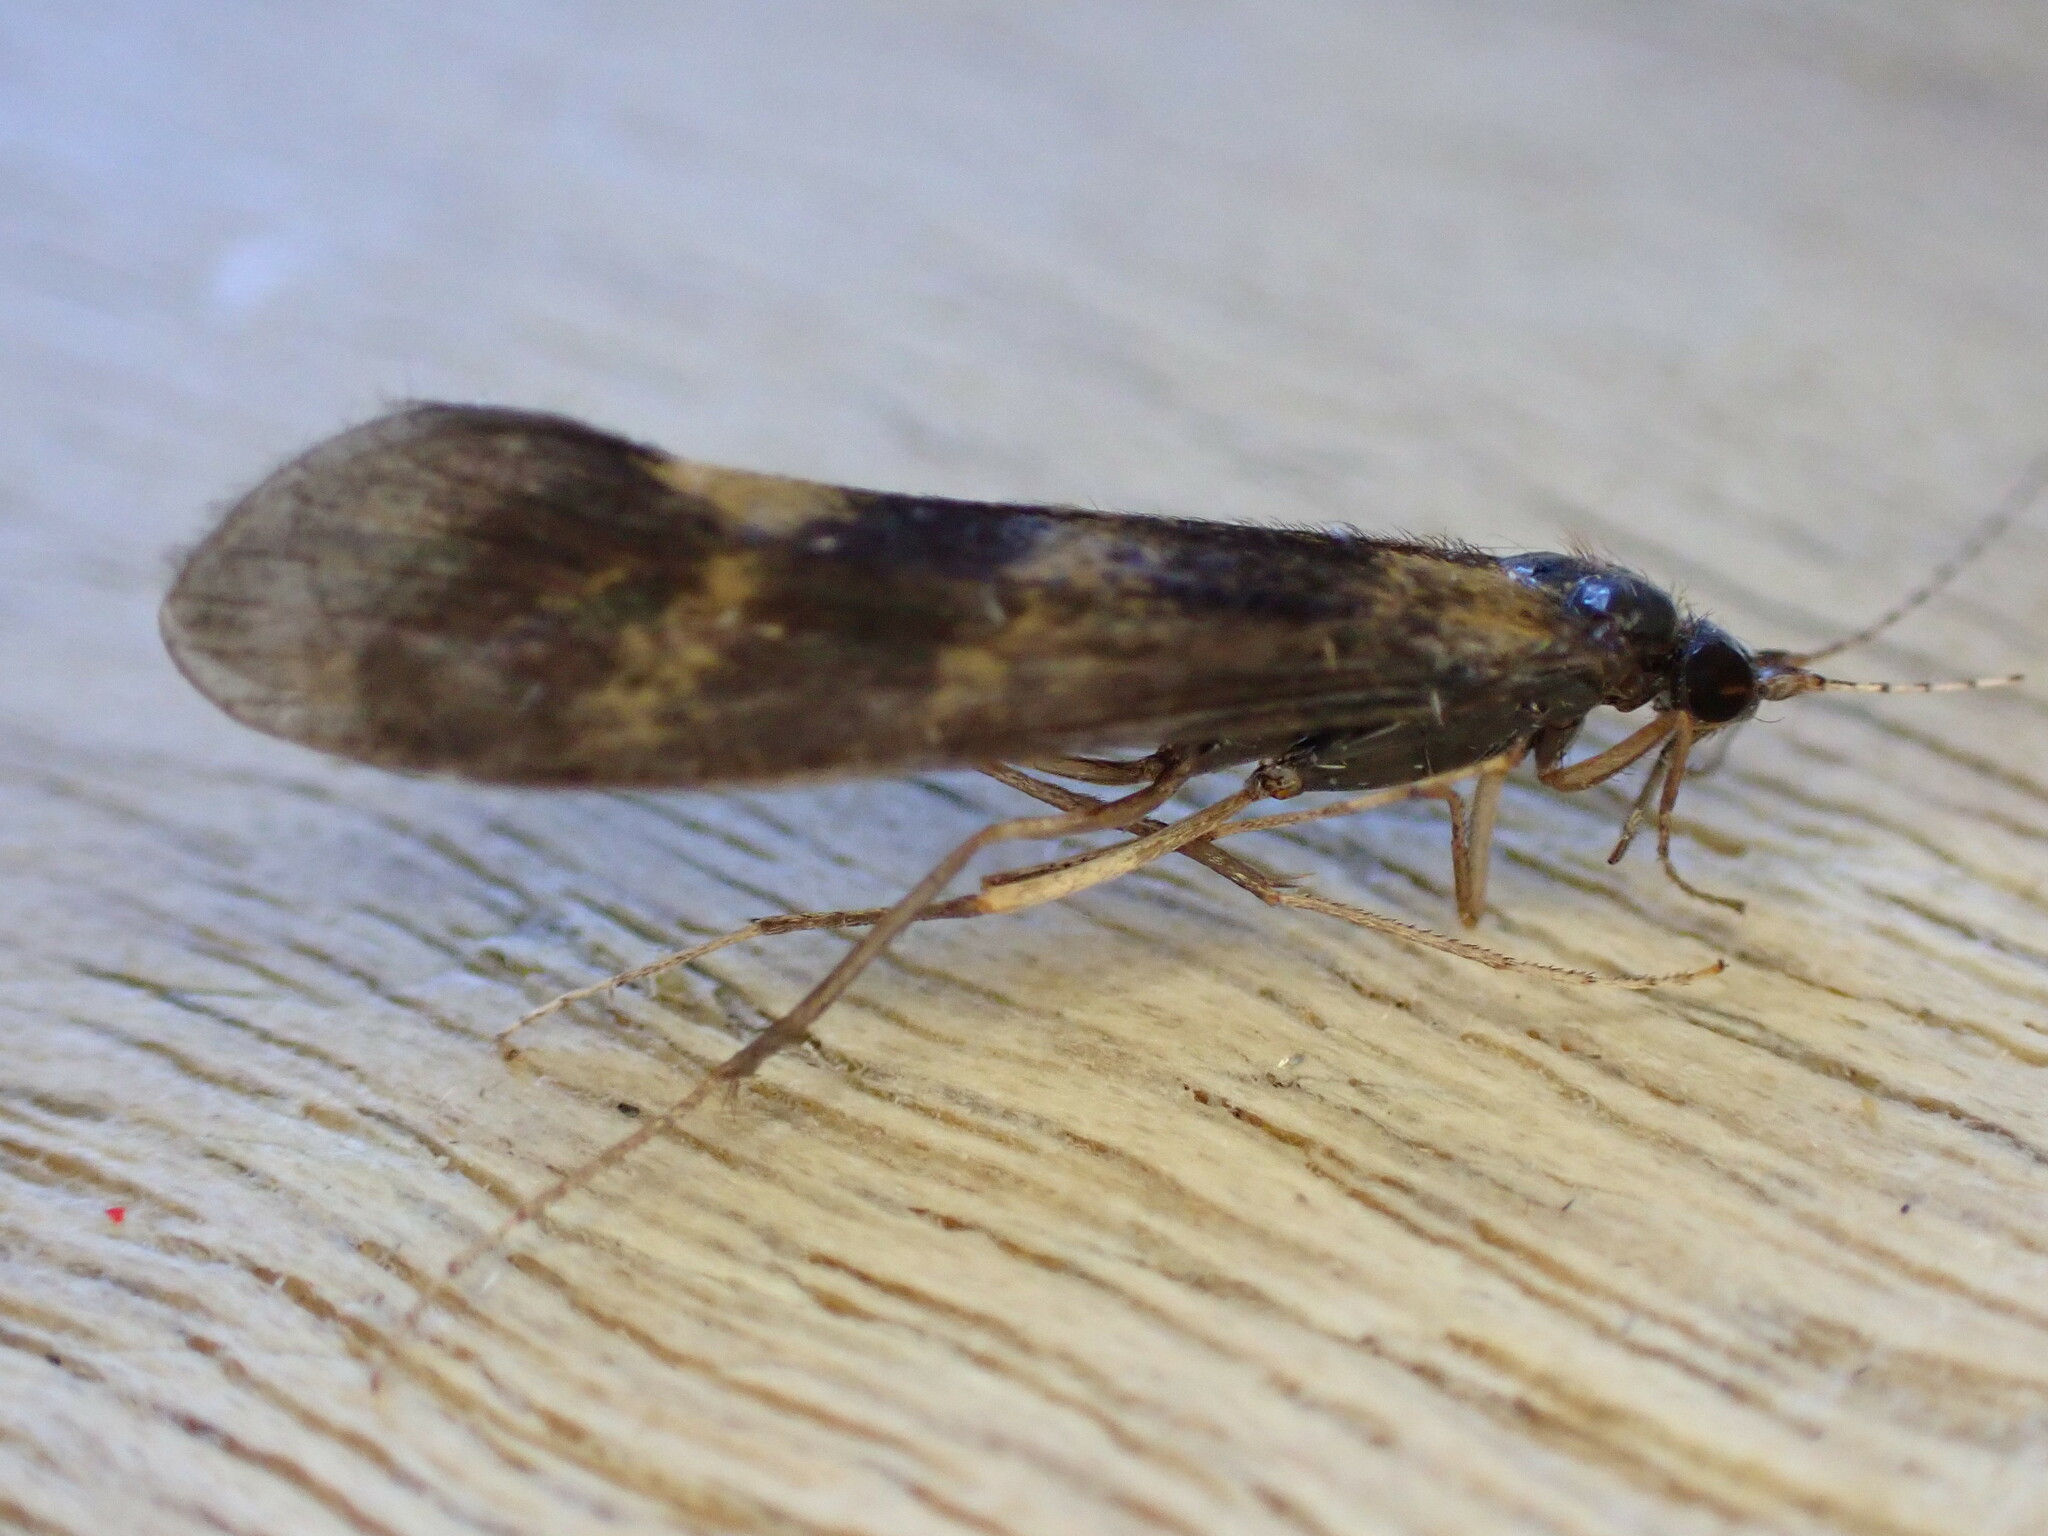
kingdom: Animalia
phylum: Arthropoda
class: Insecta
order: Trichoptera
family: Leptoceridae
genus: Mystacides
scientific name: Mystacides longicornis
